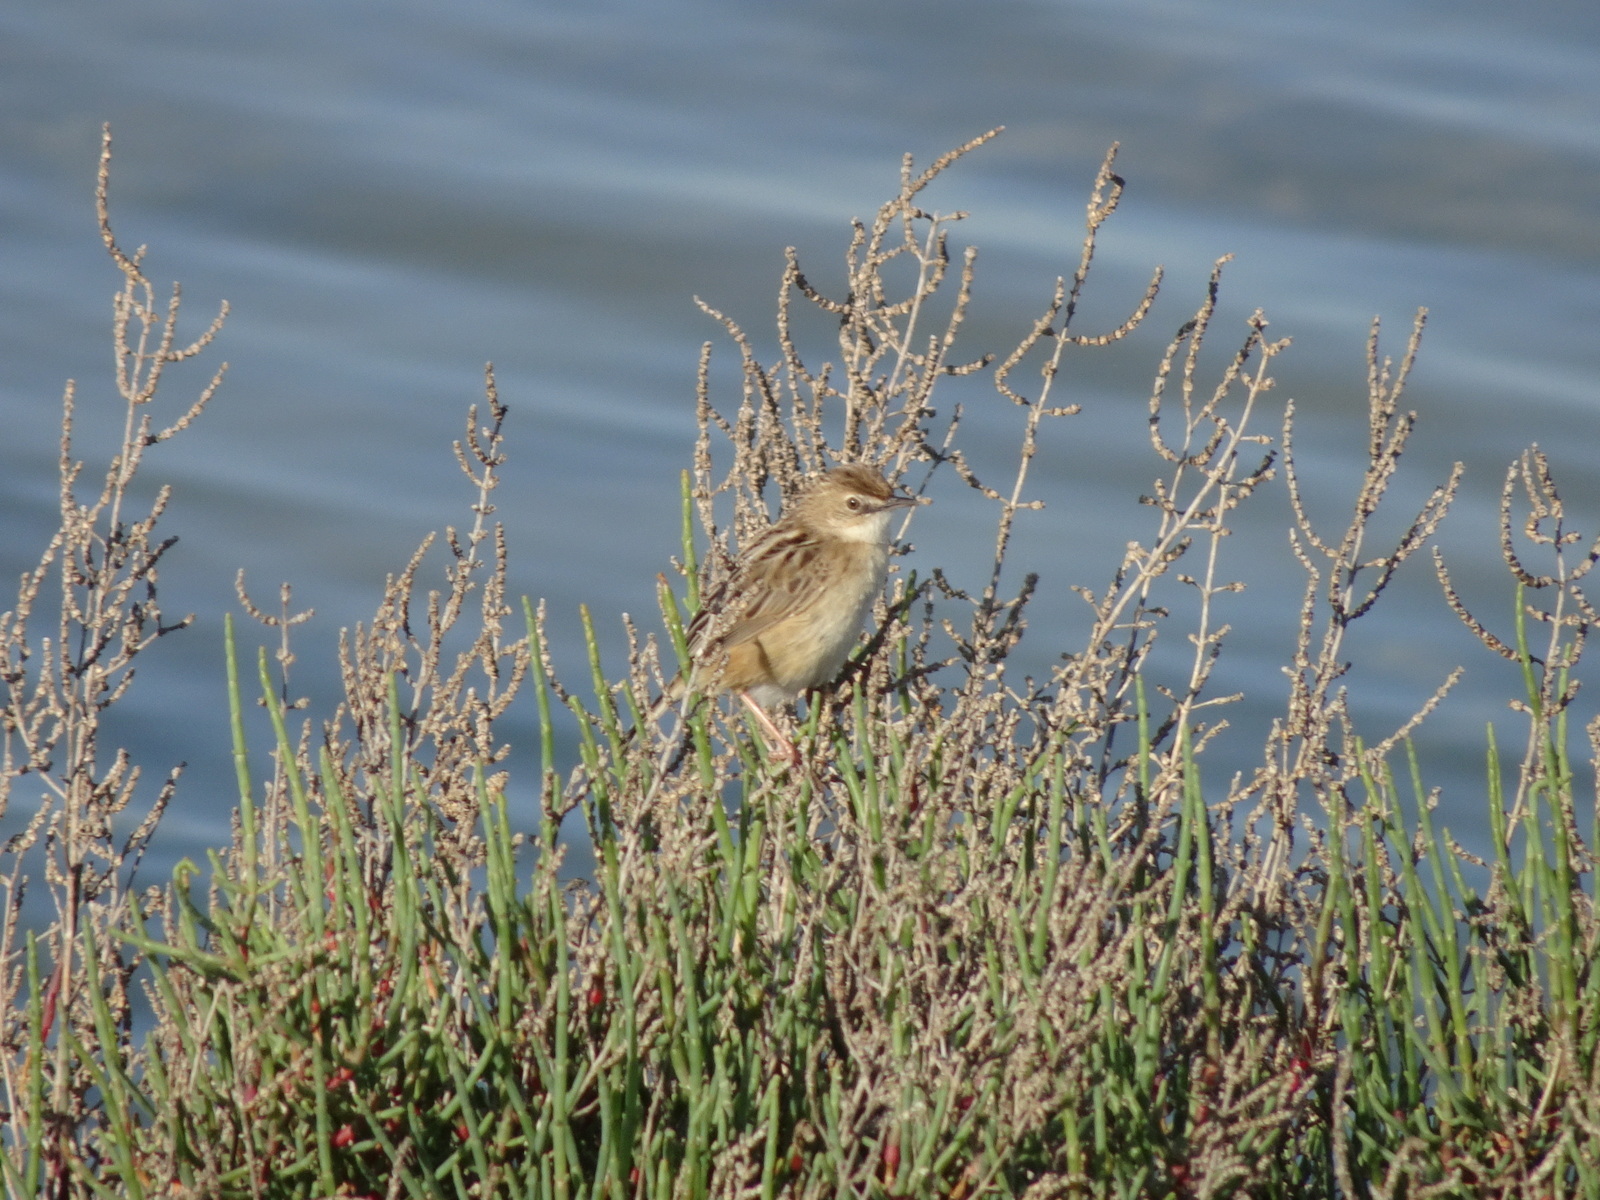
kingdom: Animalia
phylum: Chordata
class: Aves
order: Passeriformes
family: Cisticolidae
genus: Cisticola
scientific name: Cisticola juncidis
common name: Zitting cisticola
